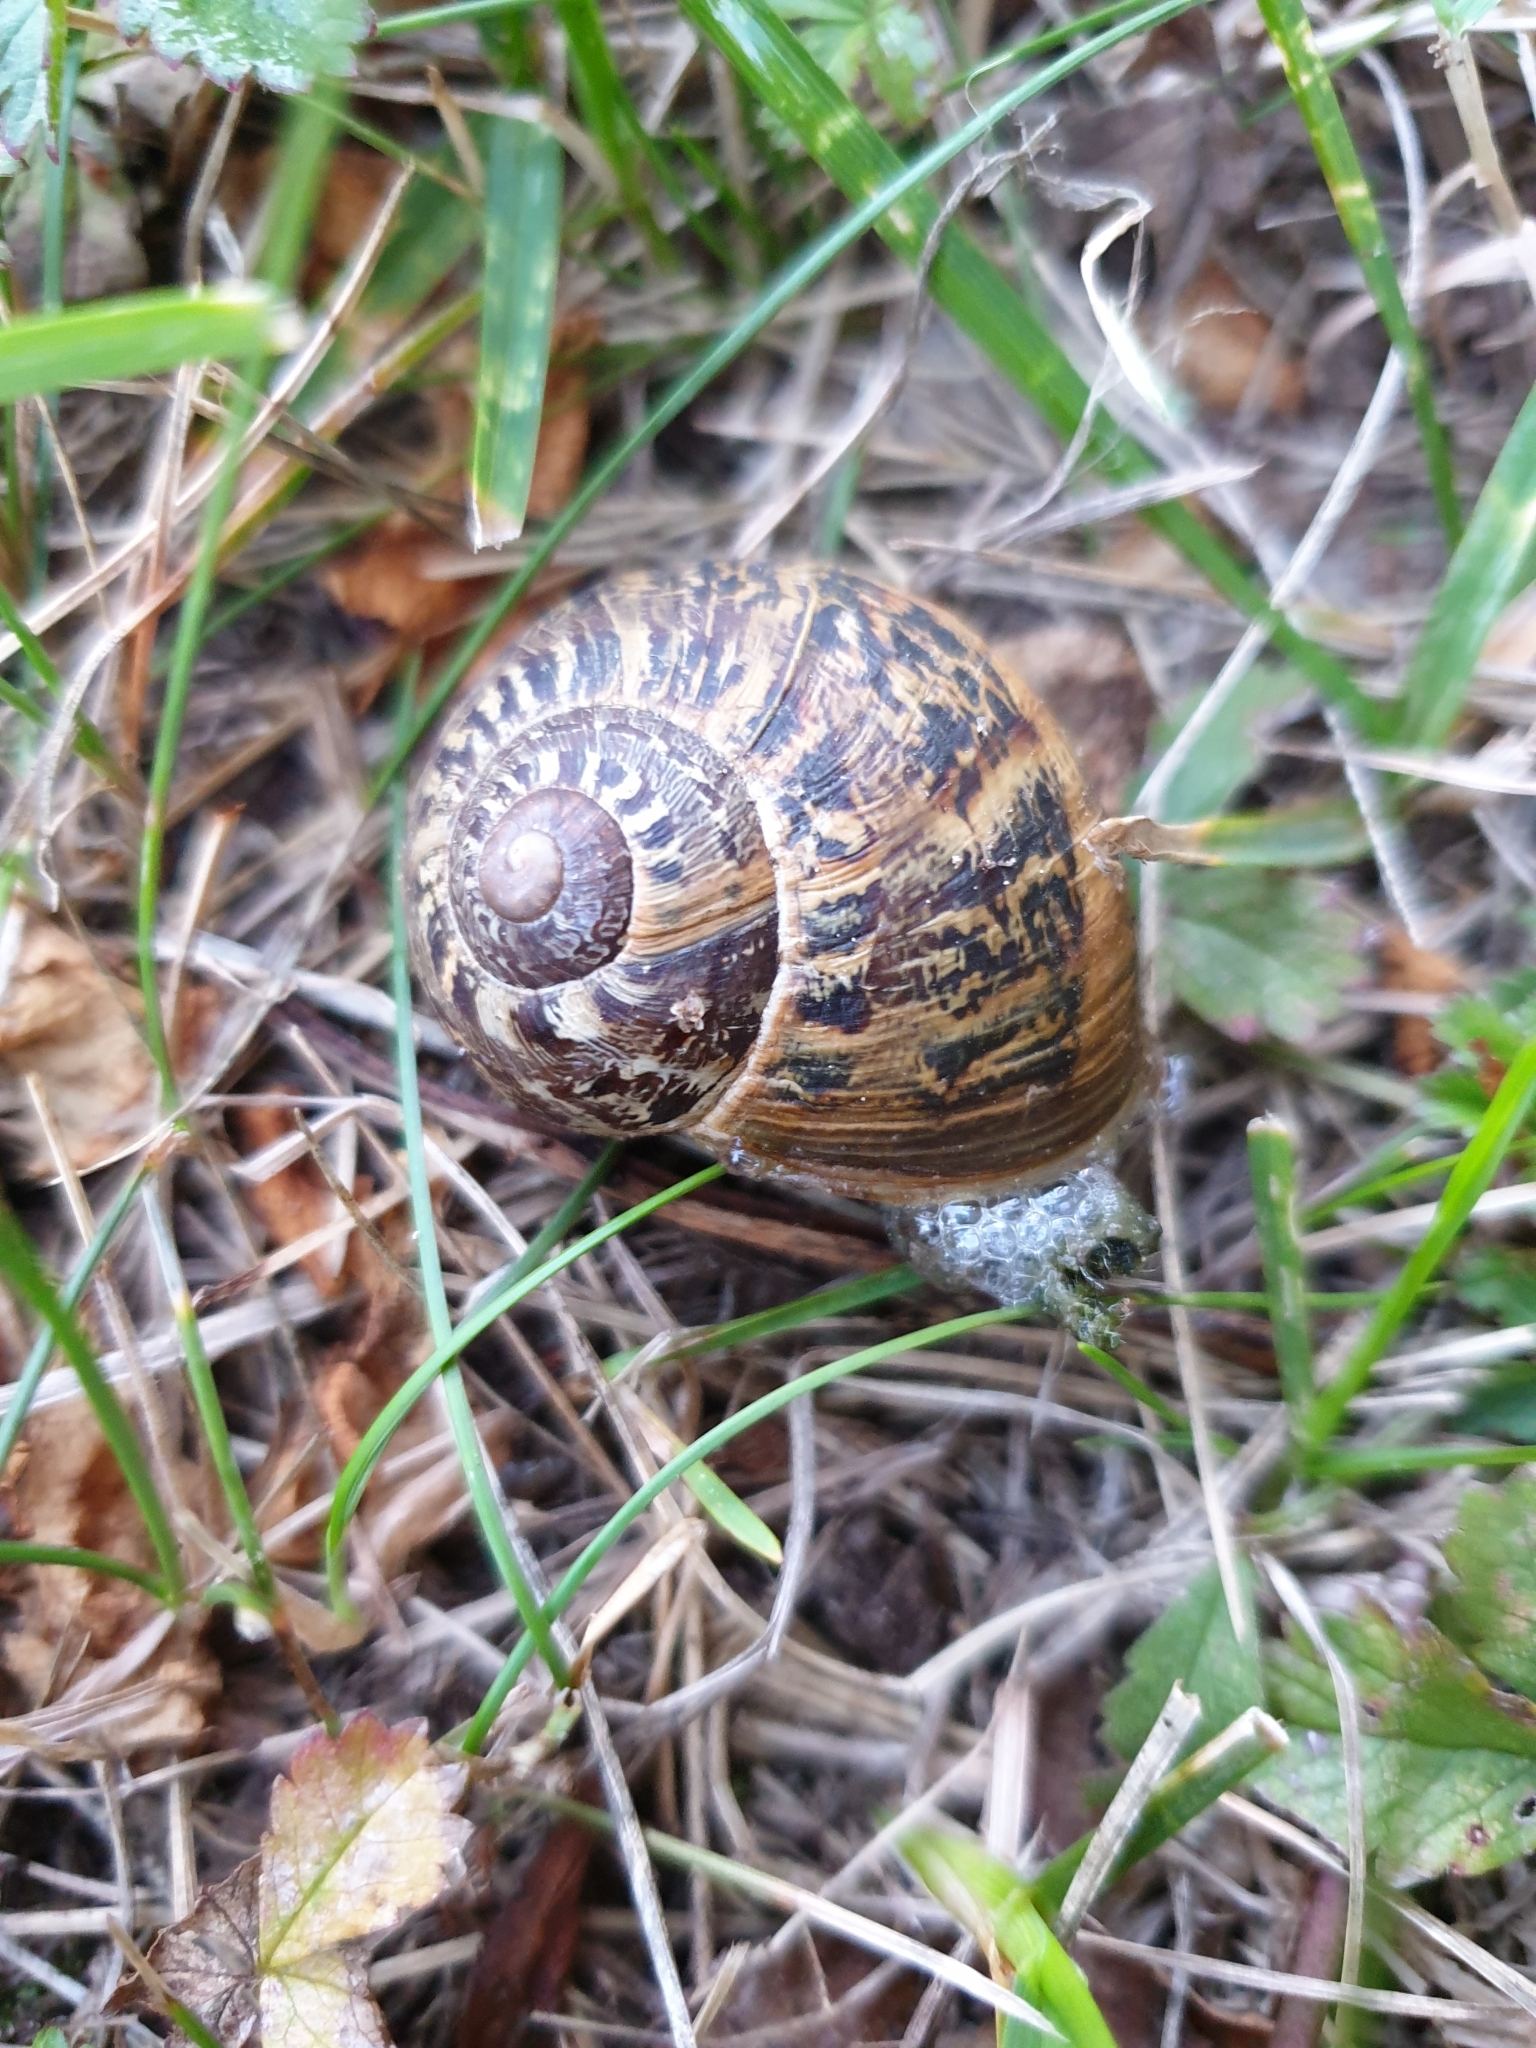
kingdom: Animalia
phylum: Mollusca
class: Gastropoda
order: Stylommatophora
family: Helicidae
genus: Cornu
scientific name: Cornu aspersum
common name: Brown garden snail
